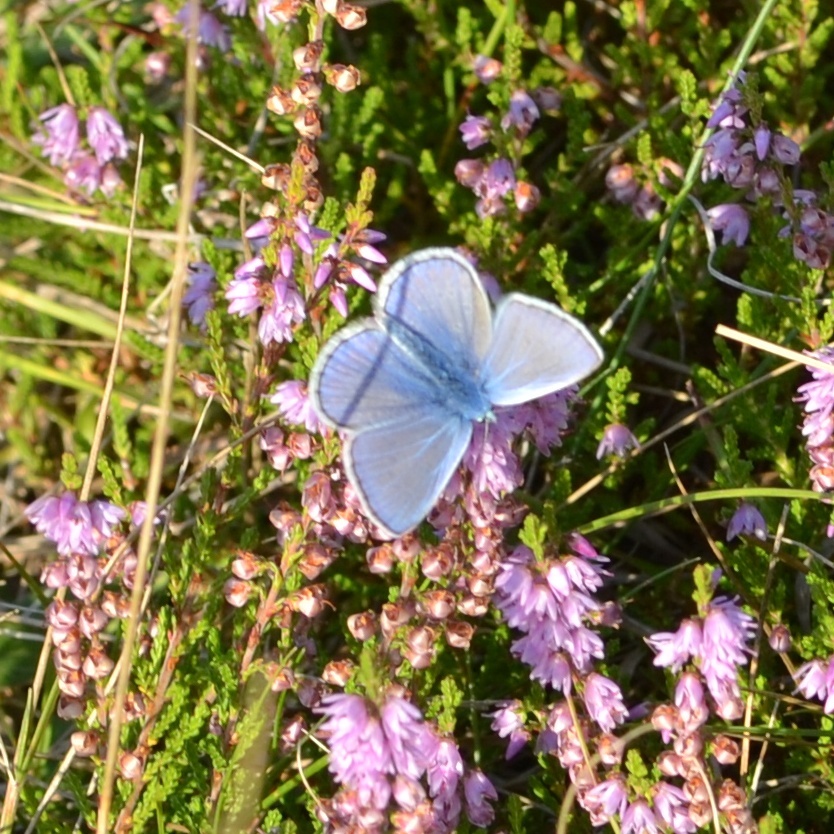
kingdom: Animalia
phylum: Arthropoda
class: Insecta
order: Lepidoptera
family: Lycaenidae
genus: Polyommatus
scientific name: Polyommatus icarus
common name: Common blue
